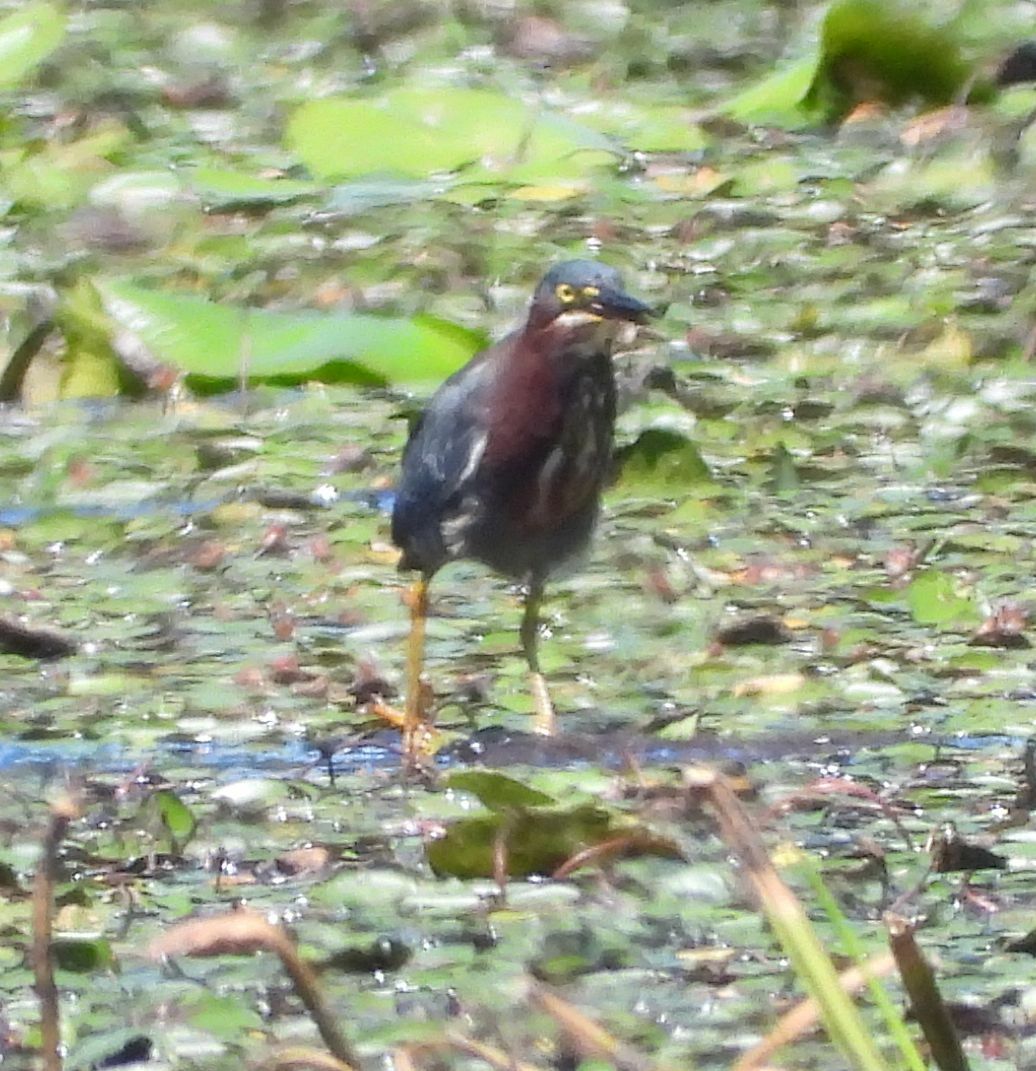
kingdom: Animalia
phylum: Chordata
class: Aves
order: Pelecaniformes
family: Ardeidae
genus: Butorides
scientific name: Butorides virescens
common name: Green heron
